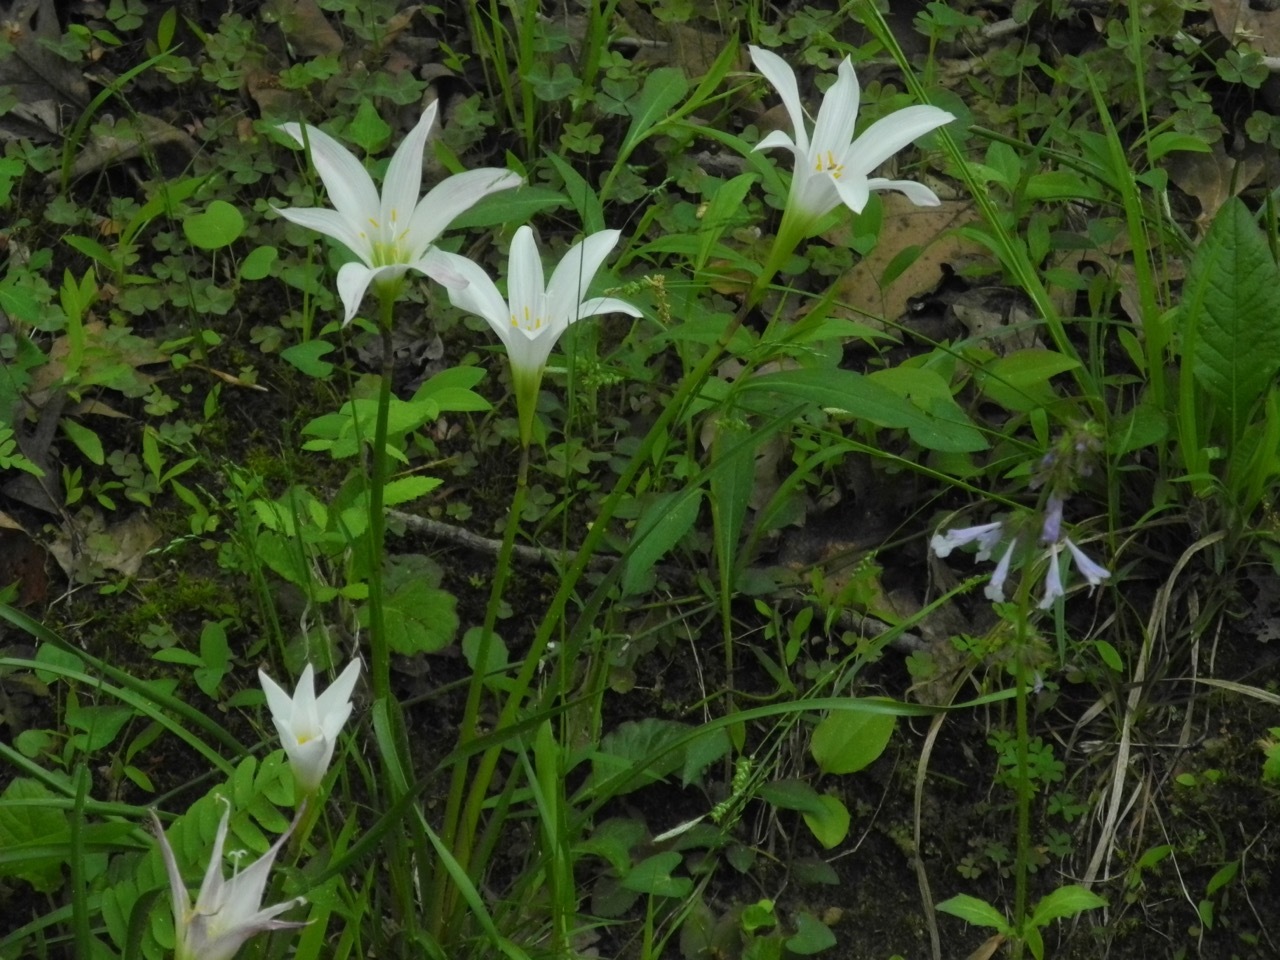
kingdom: Plantae
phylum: Tracheophyta
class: Liliopsida
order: Asparagales
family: Amaryllidaceae
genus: Zephyranthes
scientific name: Zephyranthes atamasco
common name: Atamasco lily
